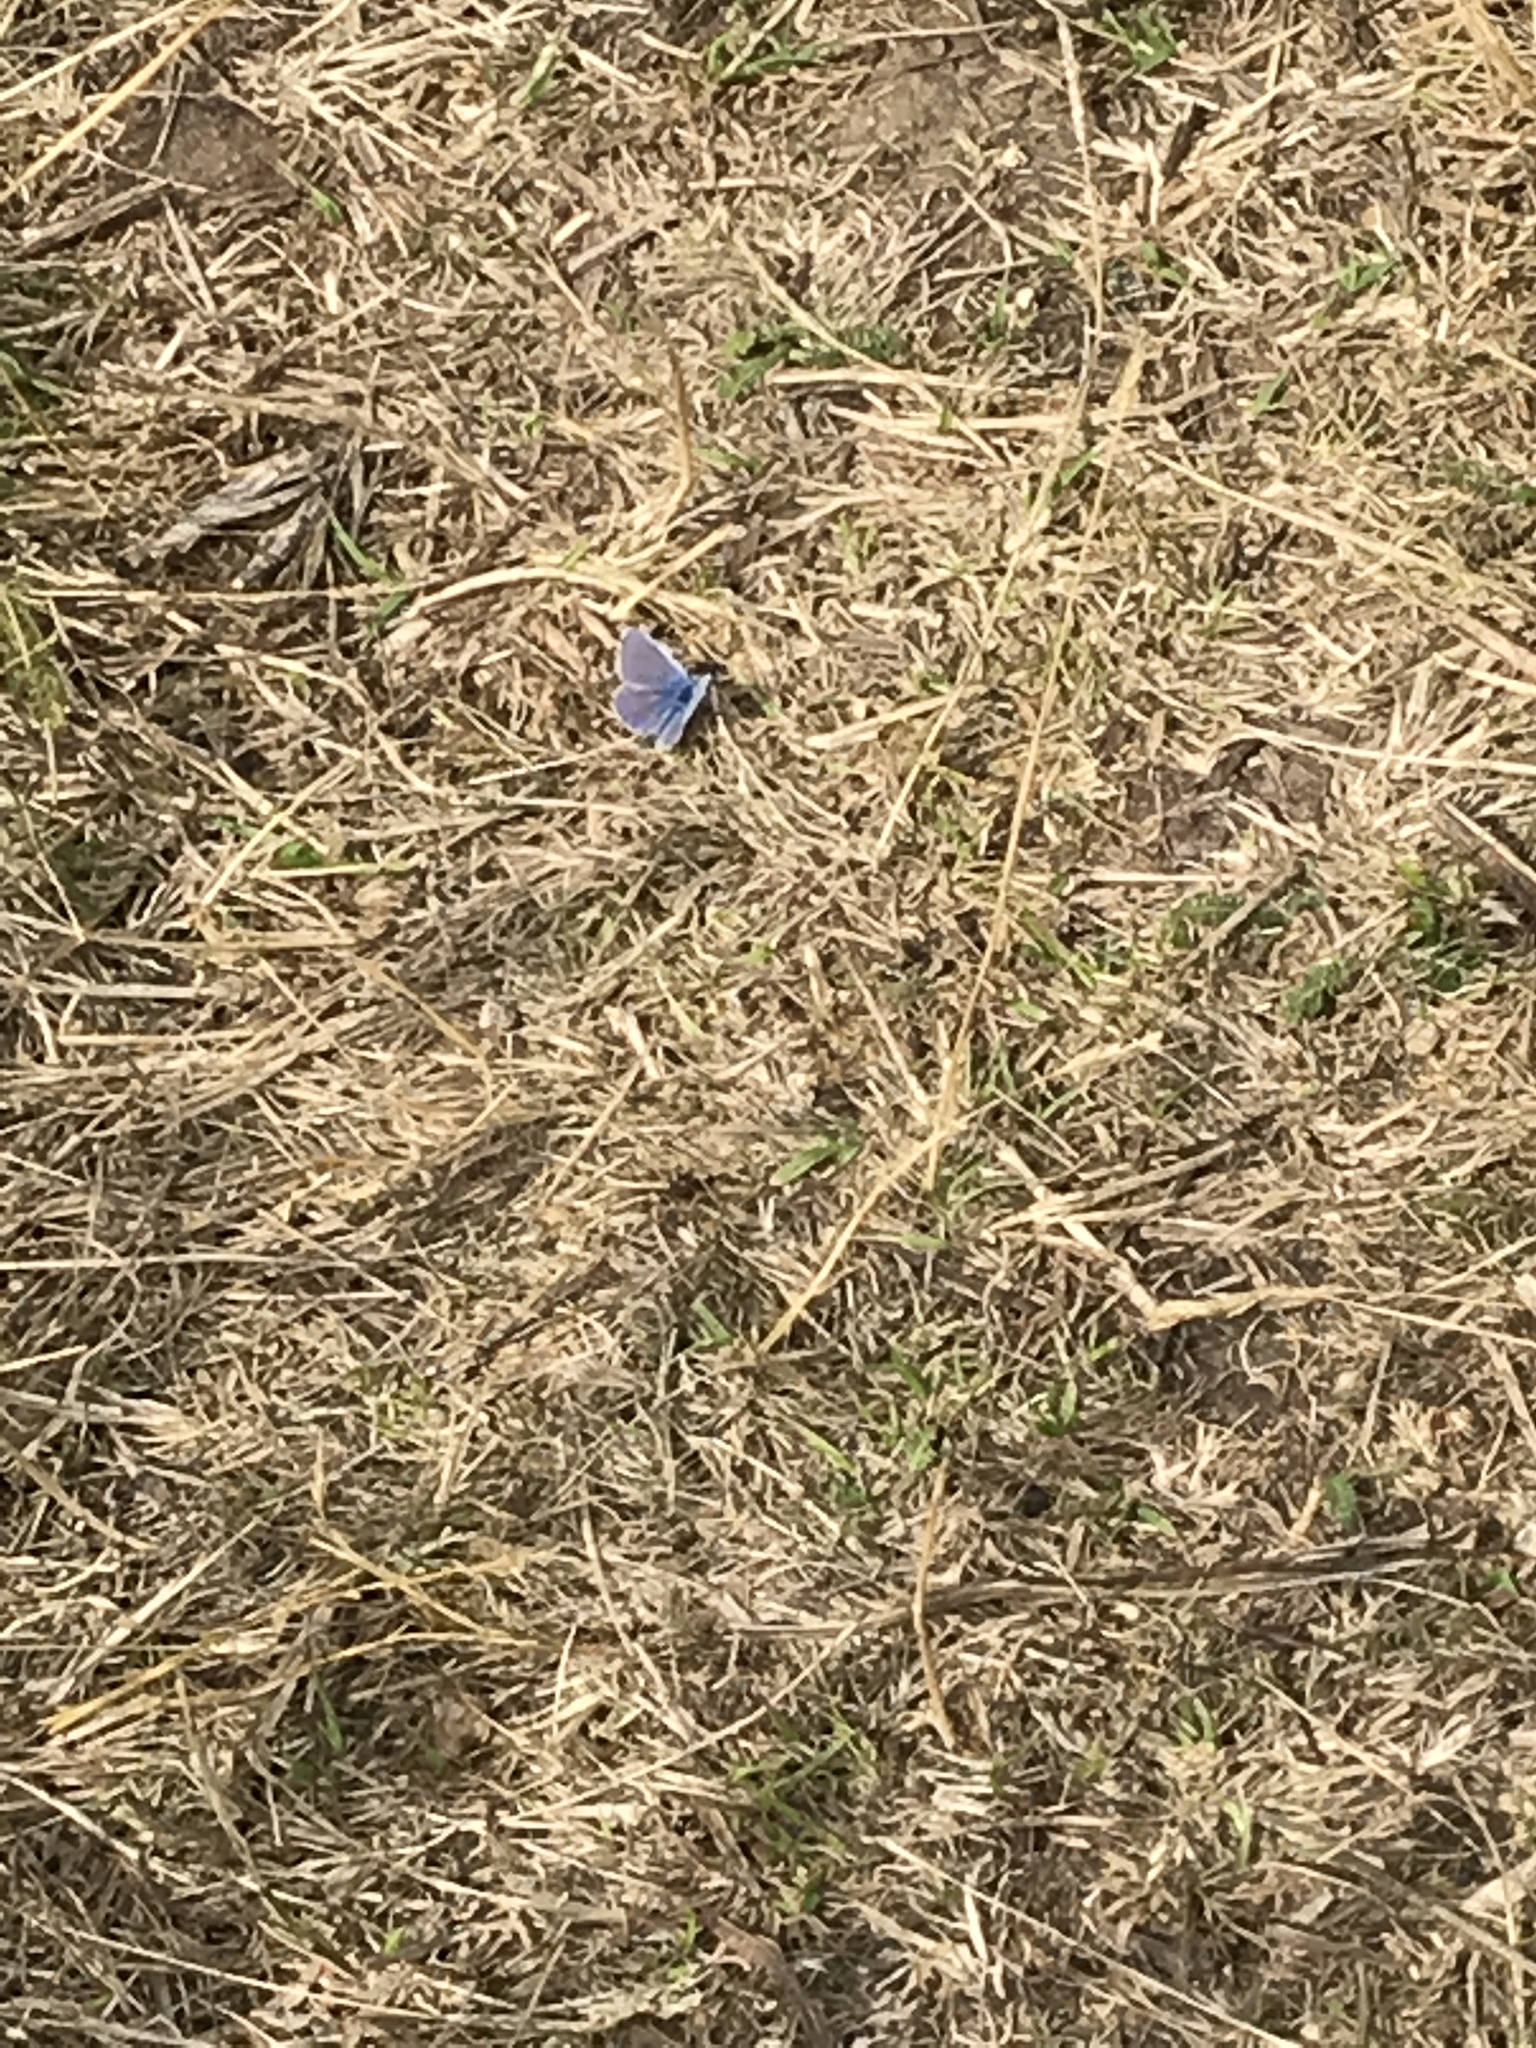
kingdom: Animalia
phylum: Arthropoda
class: Insecta
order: Lepidoptera
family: Lycaenidae
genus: Polyommatus
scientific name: Polyommatus icarus
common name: Common blue
